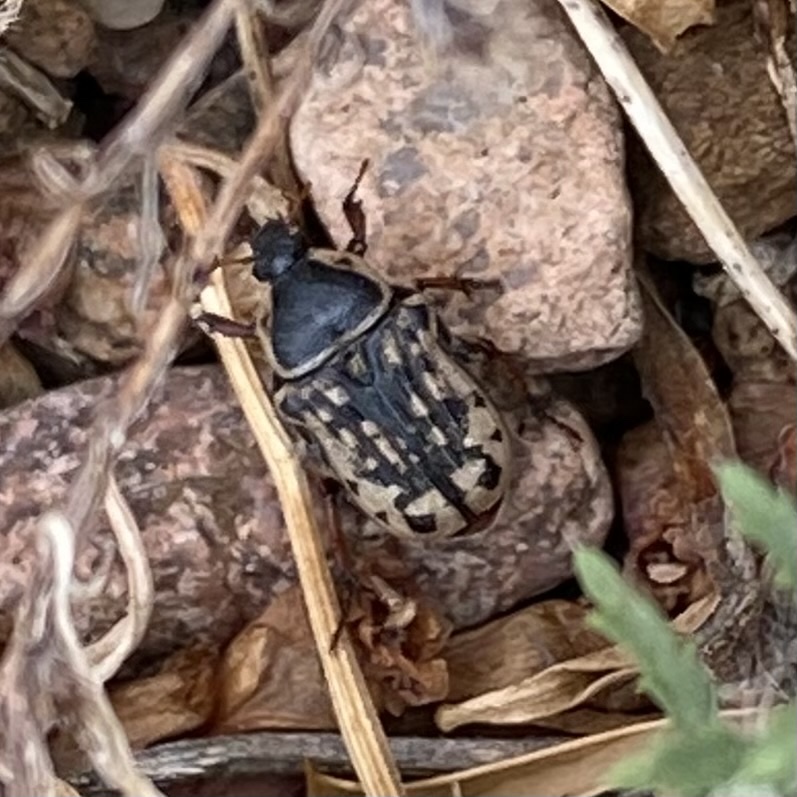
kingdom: Animalia
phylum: Arthropoda
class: Insecta
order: Coleoptera
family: Scarabaeidae
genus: Euphoria
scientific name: Euphoria kernii
